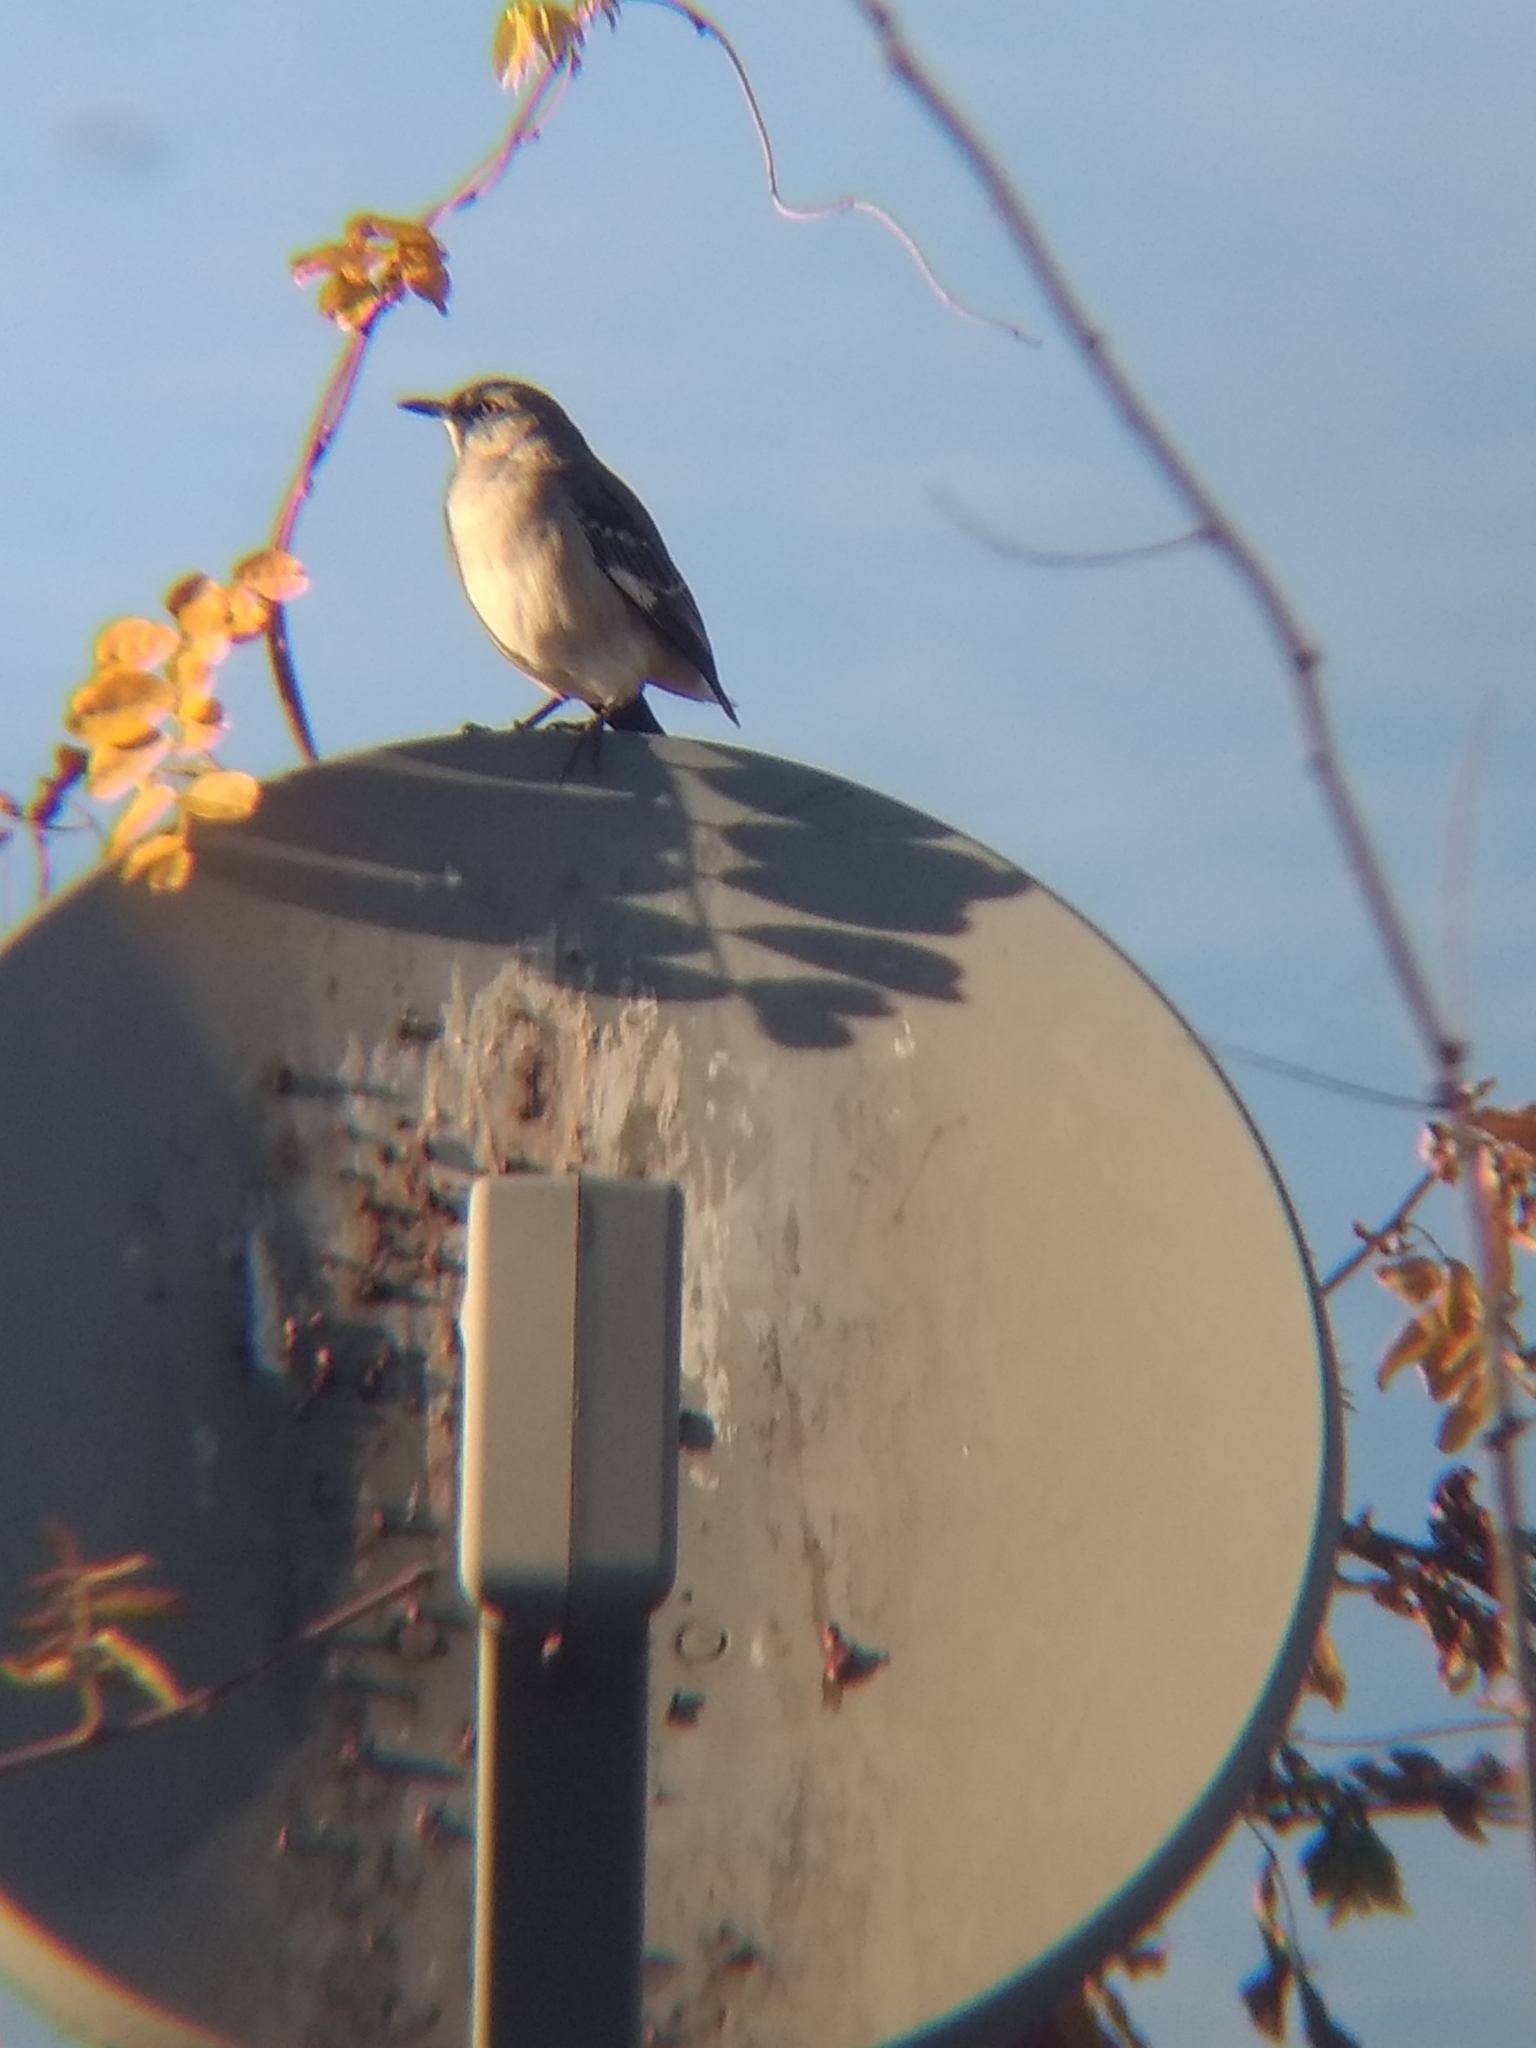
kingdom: Animalia
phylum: Chordata
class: Aves
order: Passeriformes
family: Mimidae
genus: Mimus
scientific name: Mimus polyglottos
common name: Northern mockingbird
